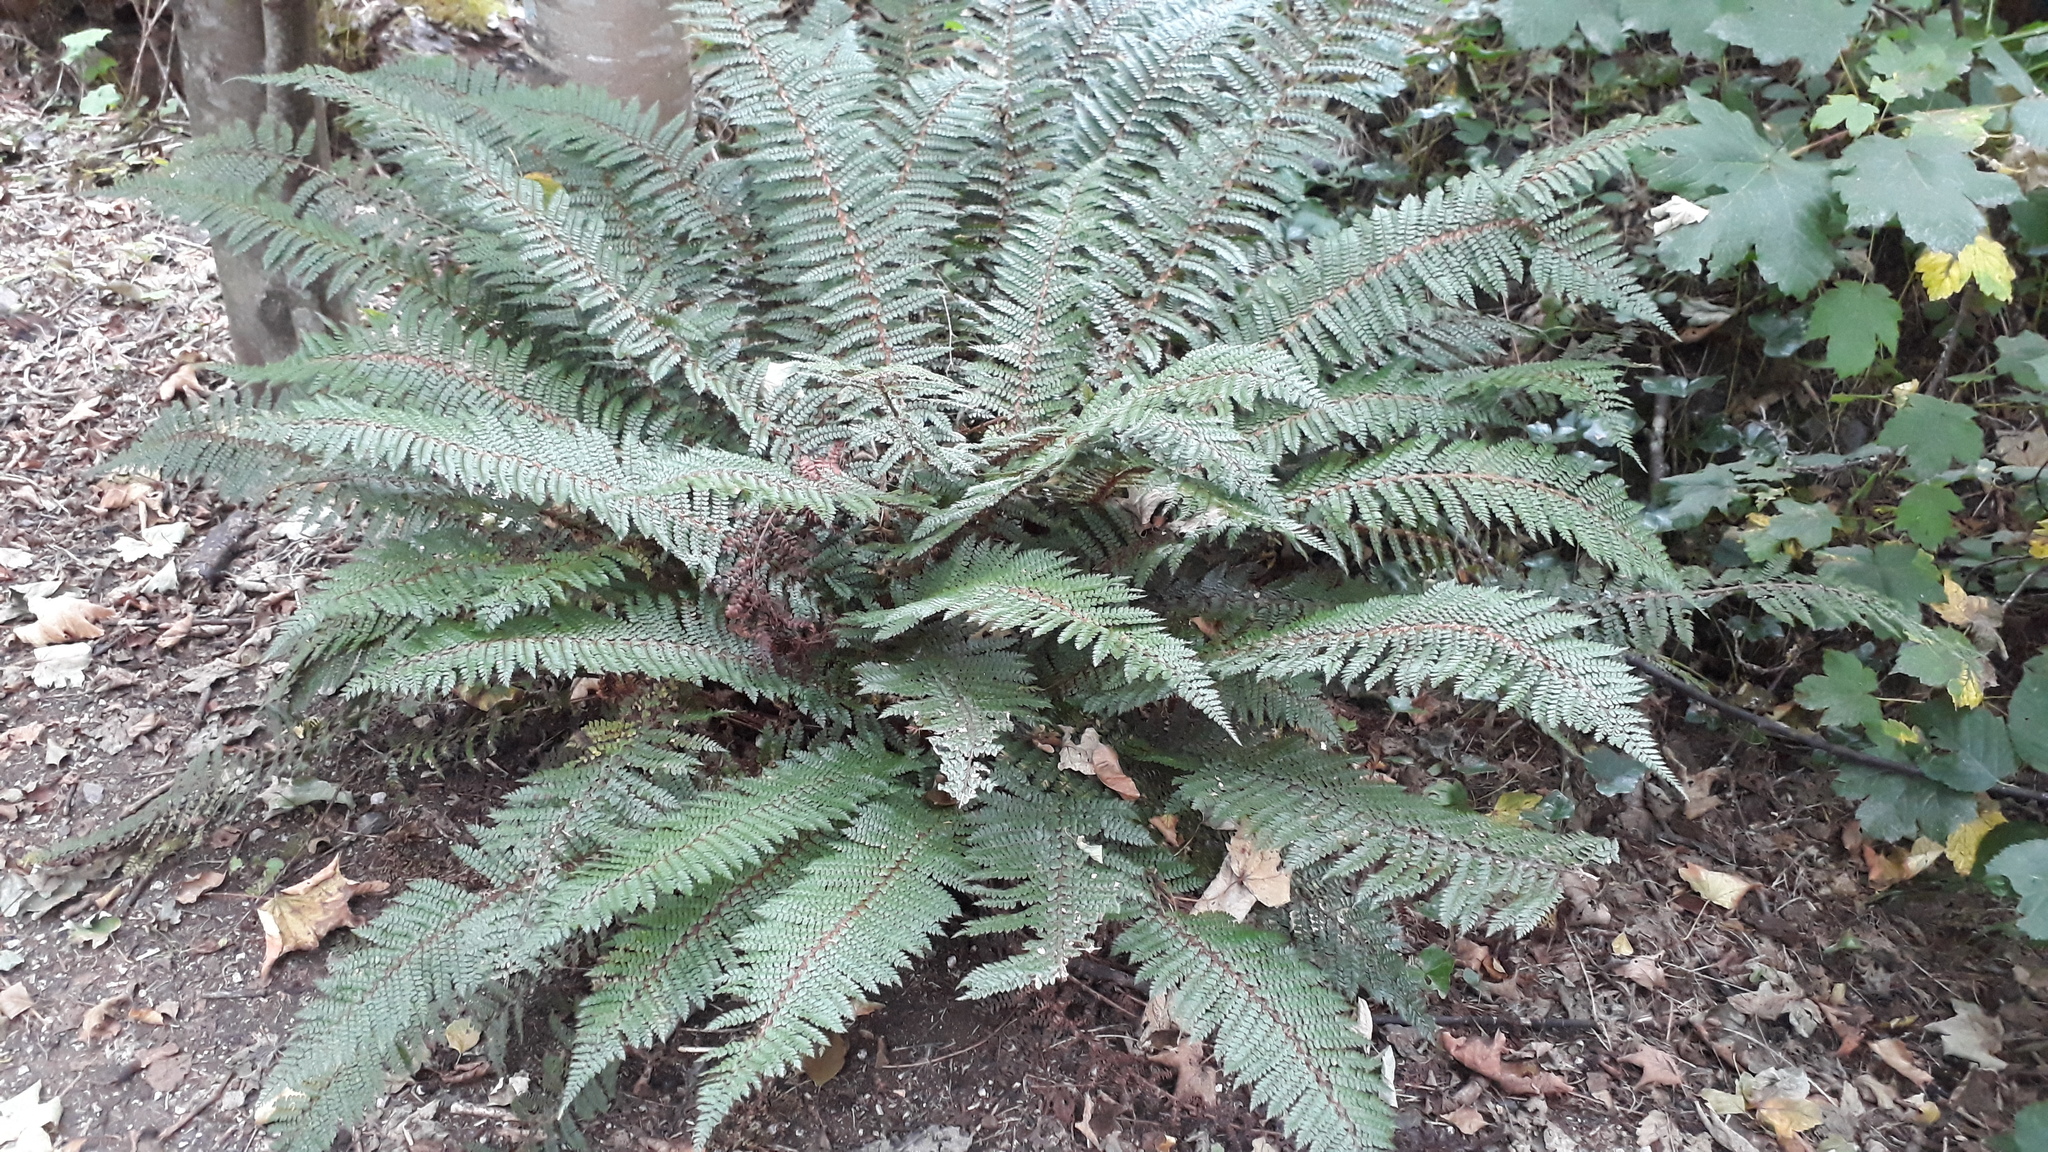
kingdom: Plantae
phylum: Tracheophyta
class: Polypodiopsida
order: Polypodiales
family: Dryopteridaceae
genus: Polystichum
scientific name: Polystichum vestitum
